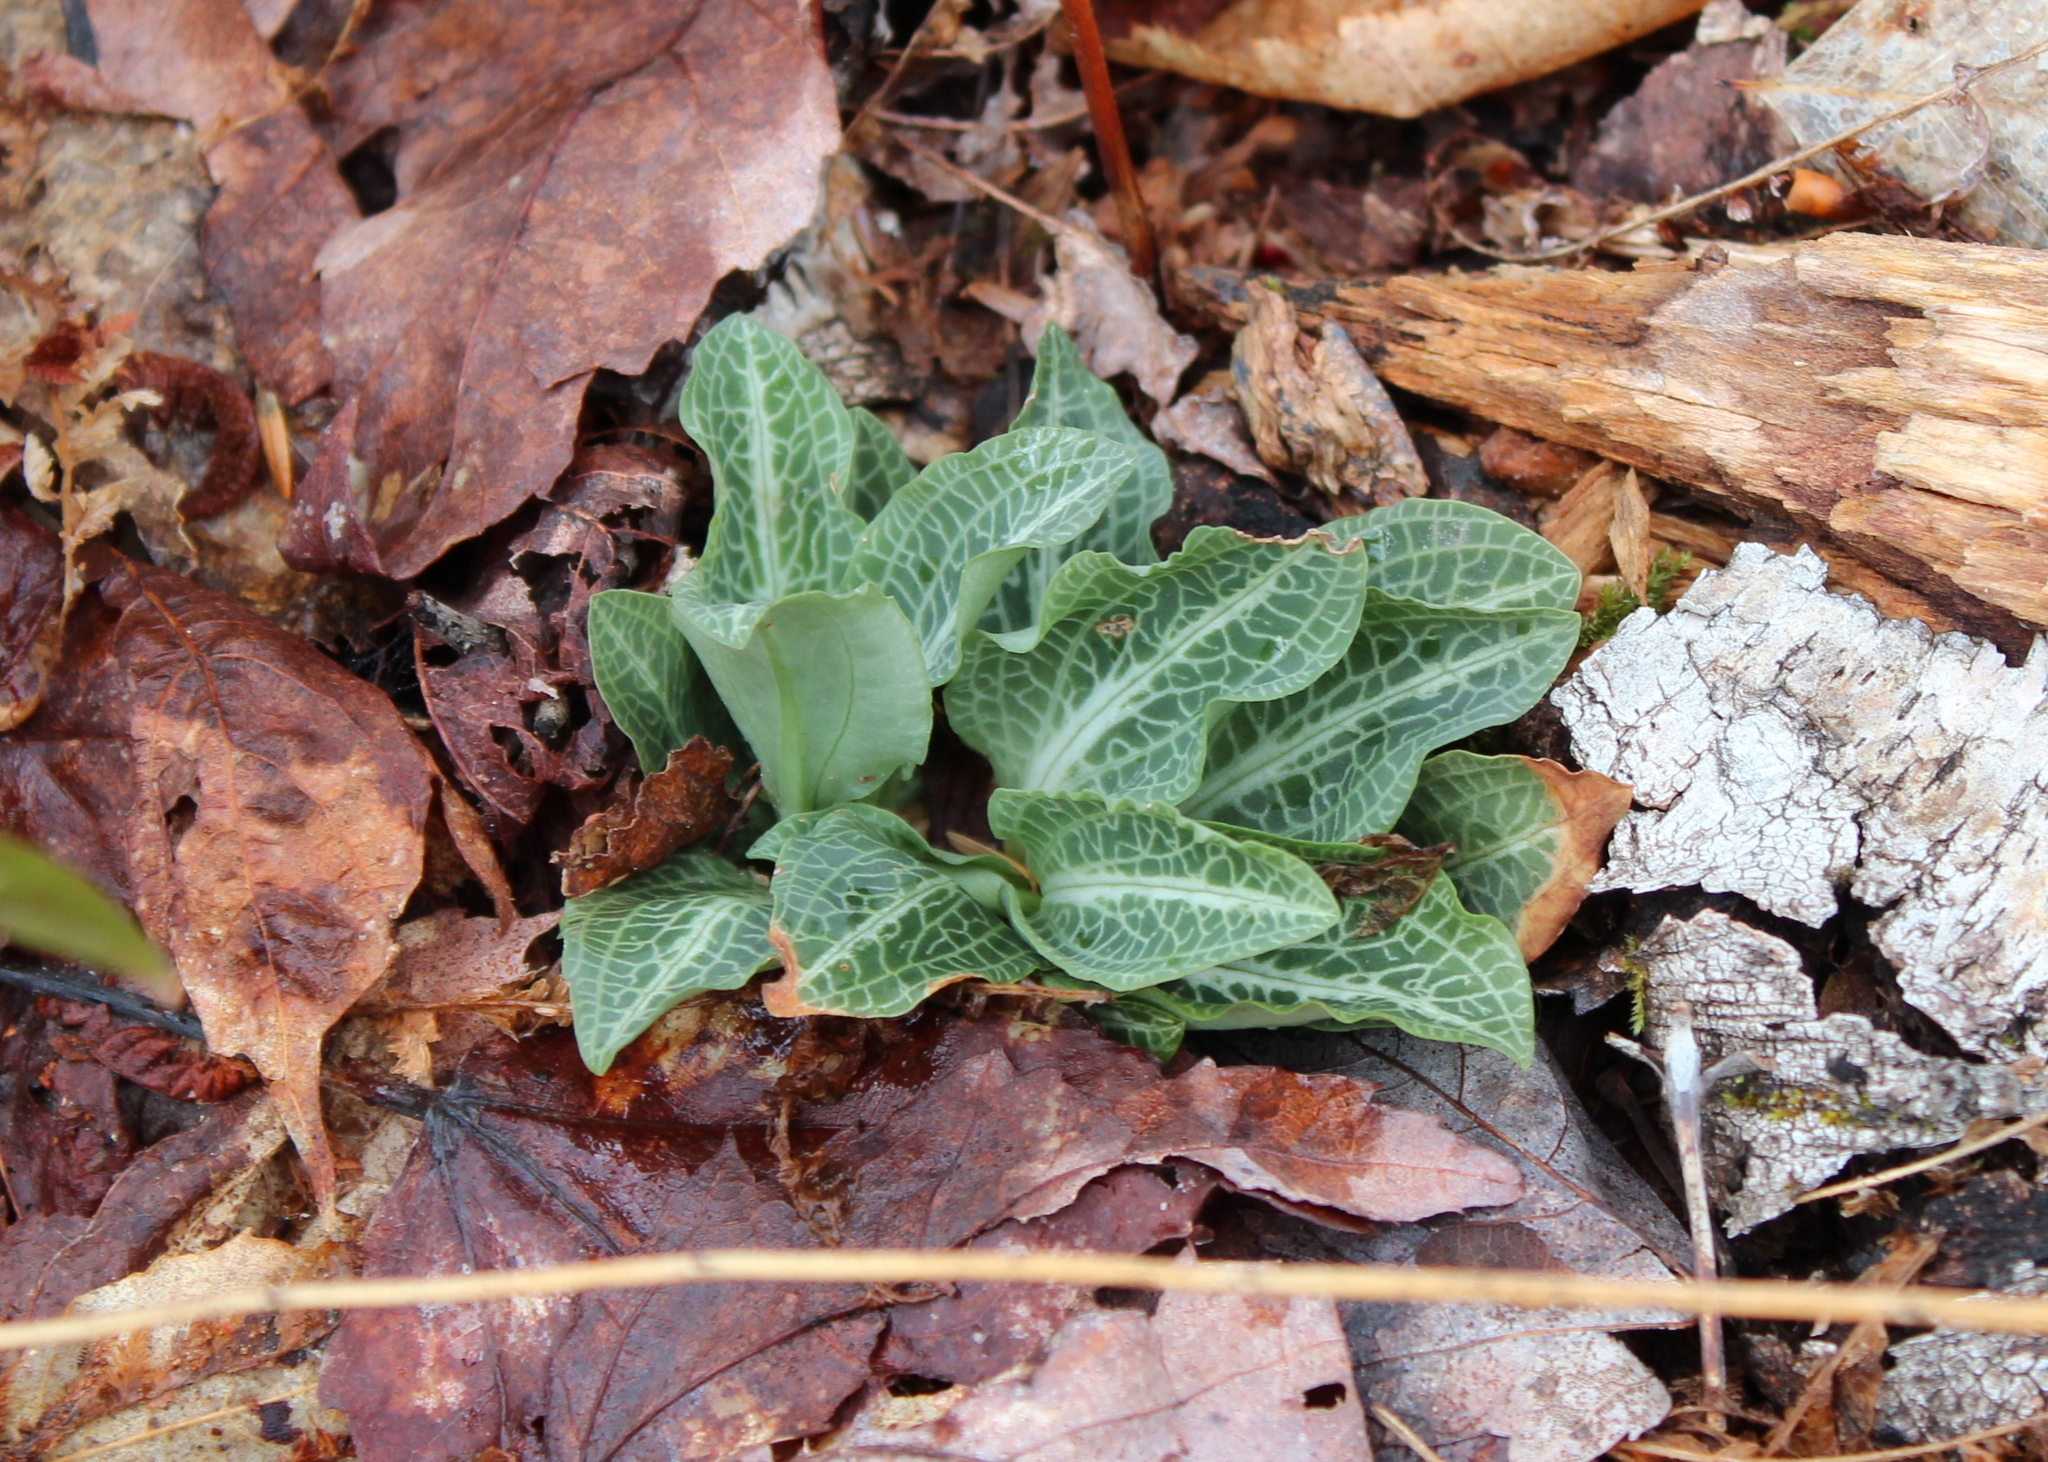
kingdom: Plantae
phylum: Tracheophyta
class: Liliopsida
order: Asparagales
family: Orchidaceae
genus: Goodyera
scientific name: Goodyera pubescens
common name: Downy rattlesnake-plantain
